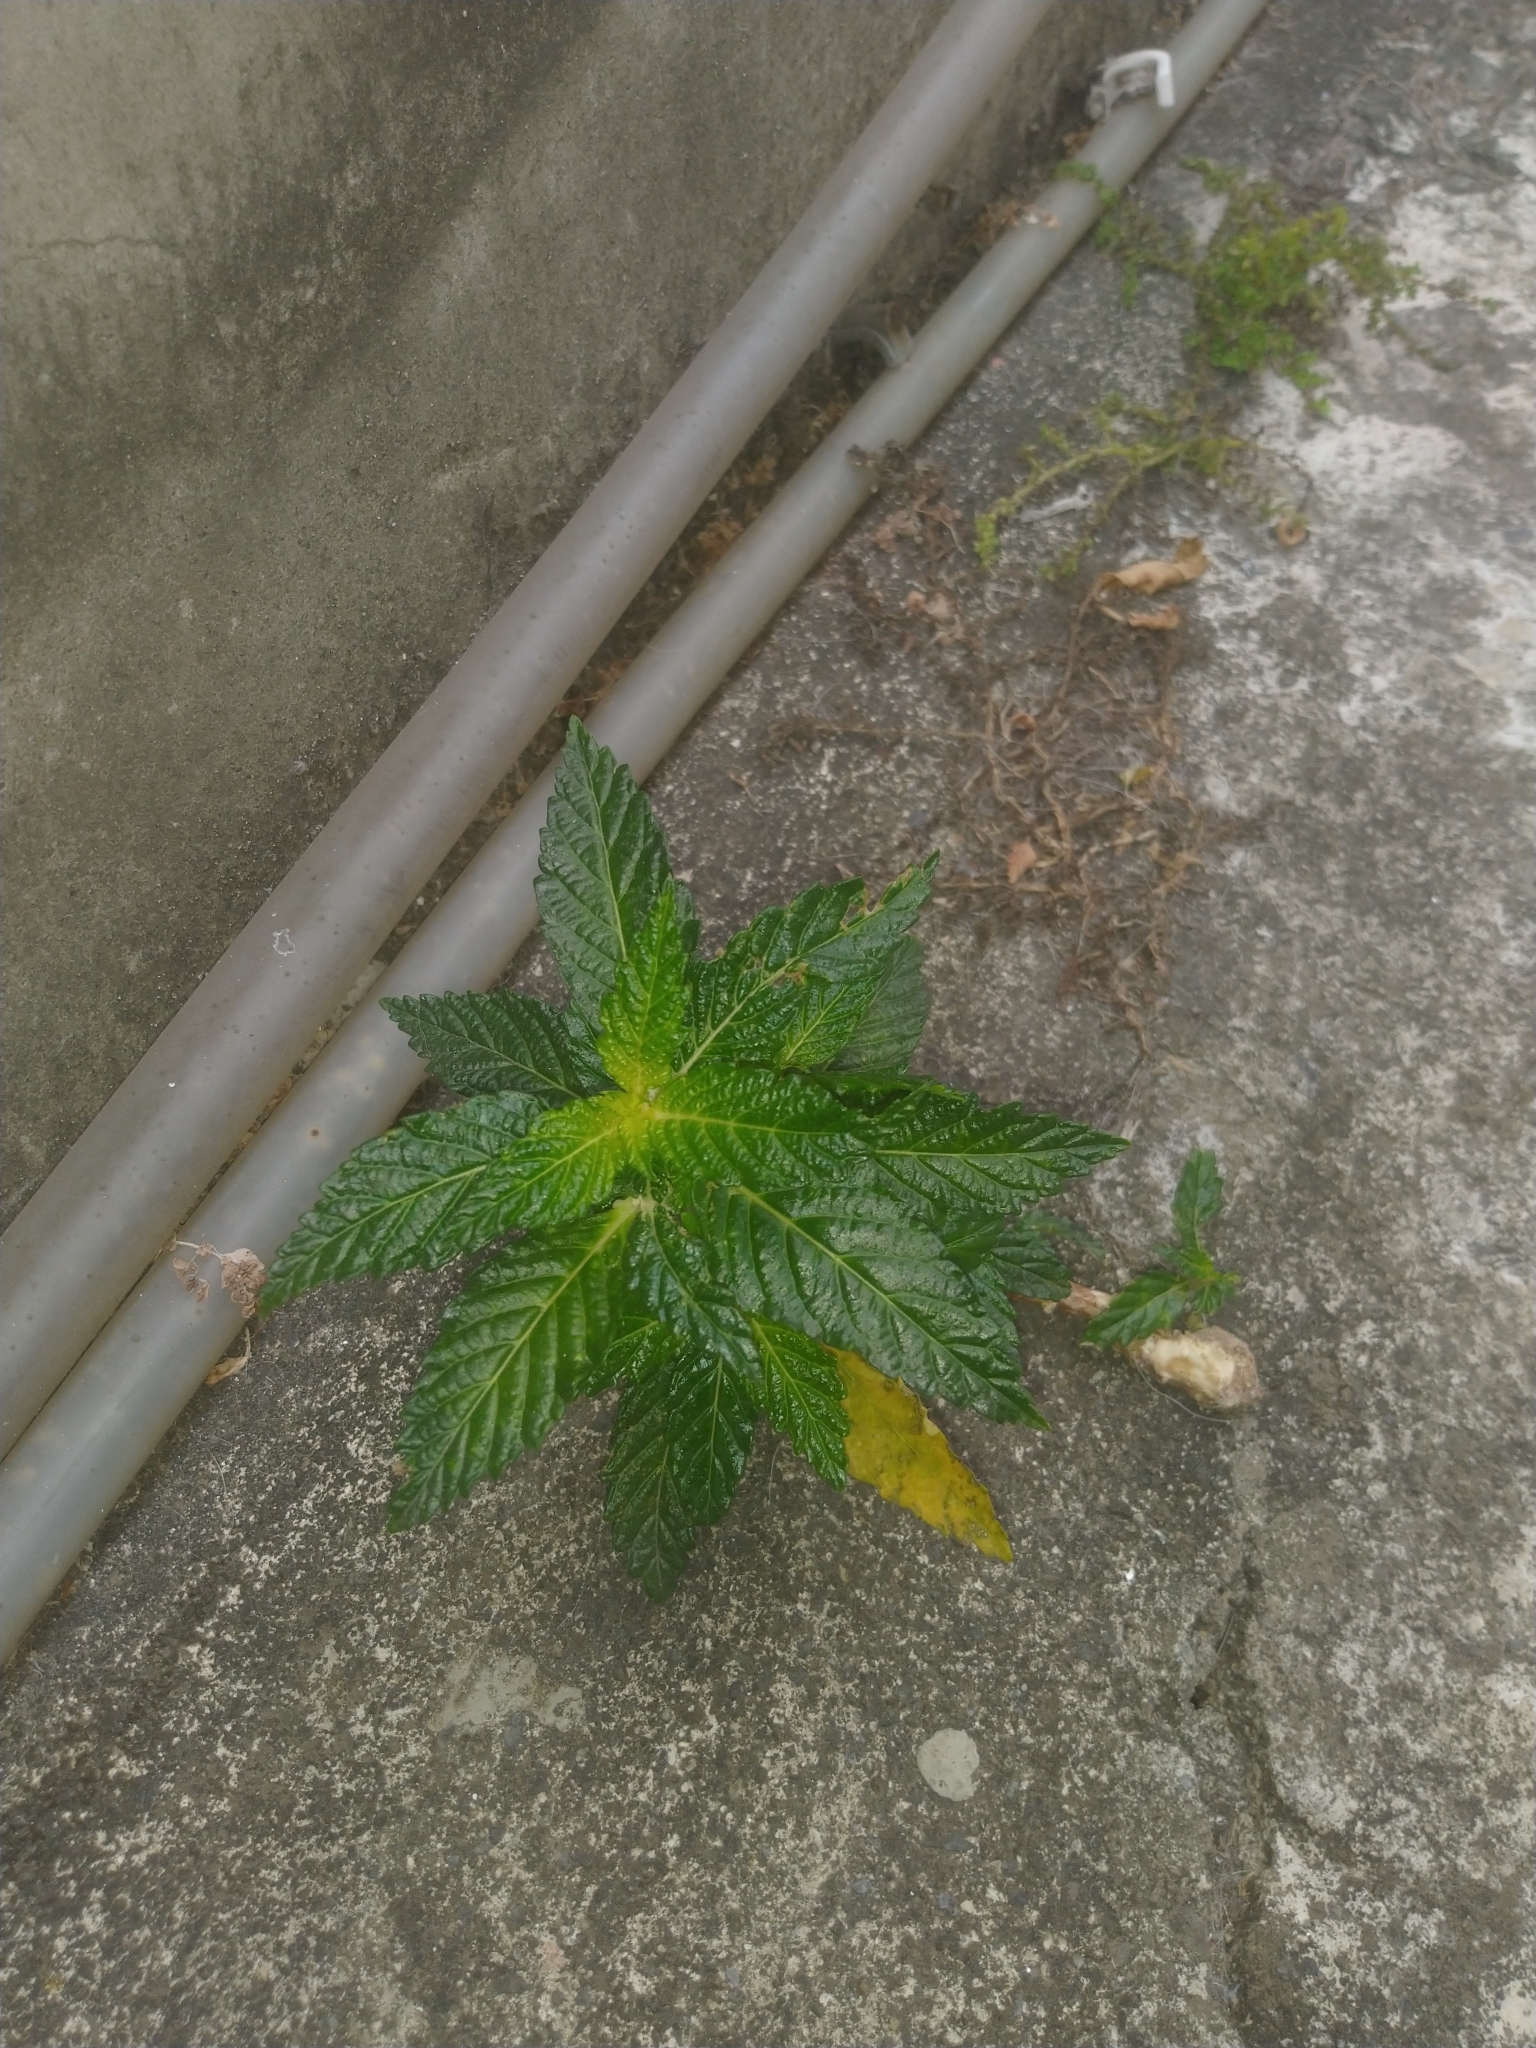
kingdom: Plantae
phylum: Tracheophyta
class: Magnoliopsida
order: Malpighiales
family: Turneraceae
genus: Turnera
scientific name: Turnera ulmifolia
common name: Ramgoat dashalong
